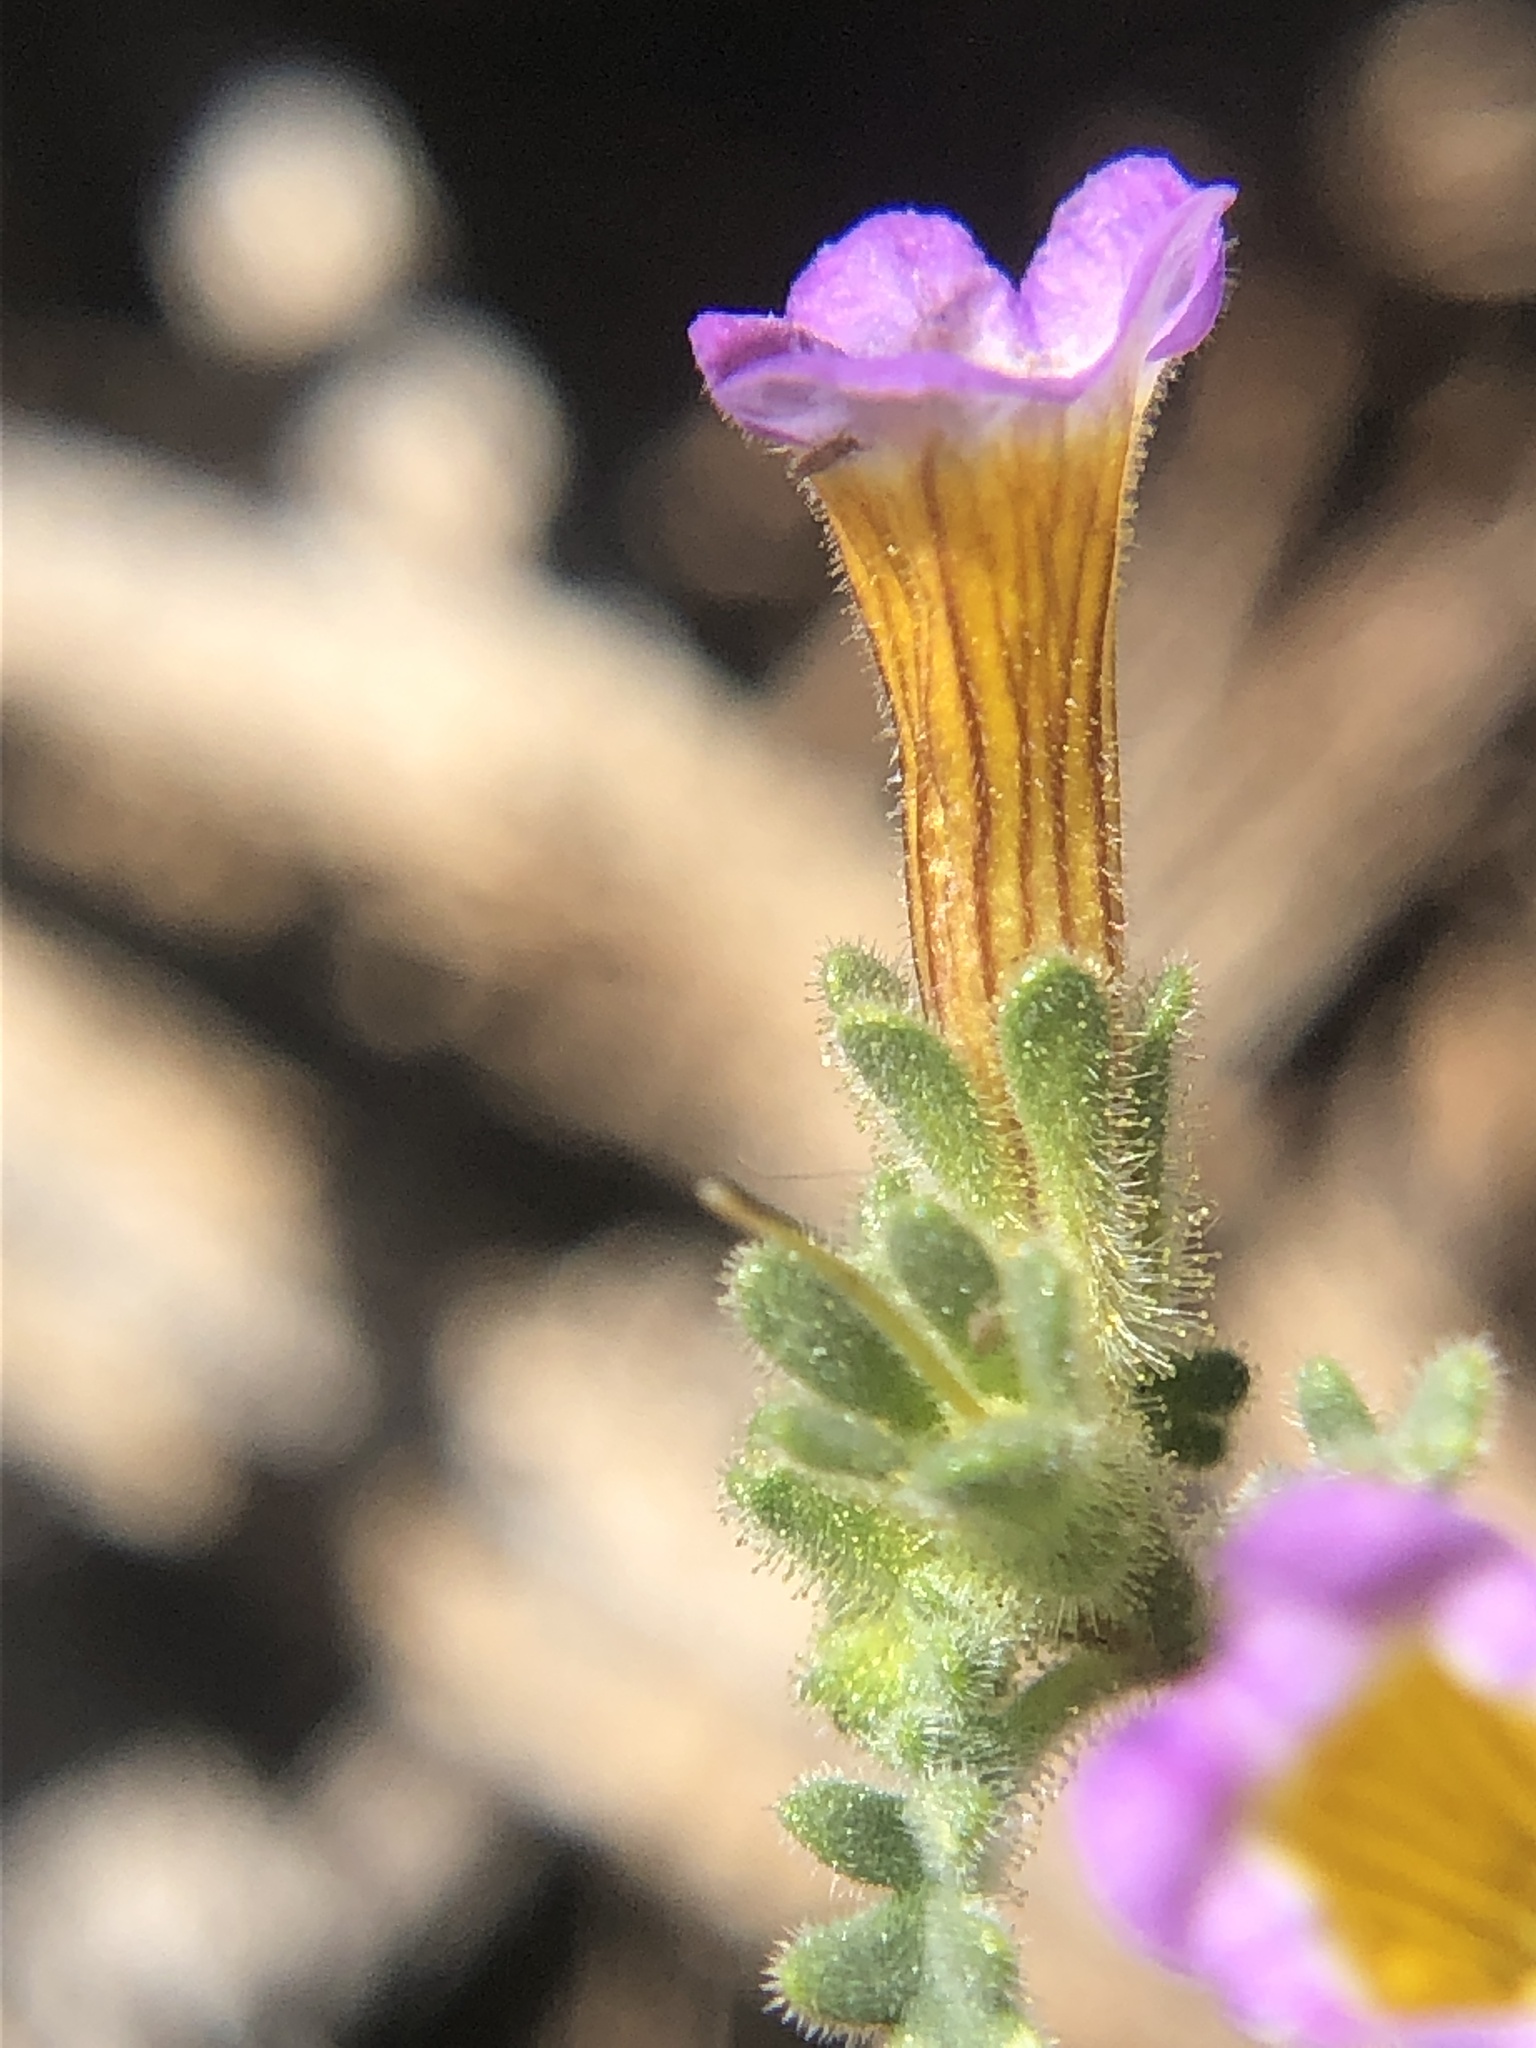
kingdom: Plantae
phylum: Tracheophyta
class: Magnoliopsida
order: Boraginales
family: Hydrophyllaceae
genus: Phacelia
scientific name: Phacelia bicolor
